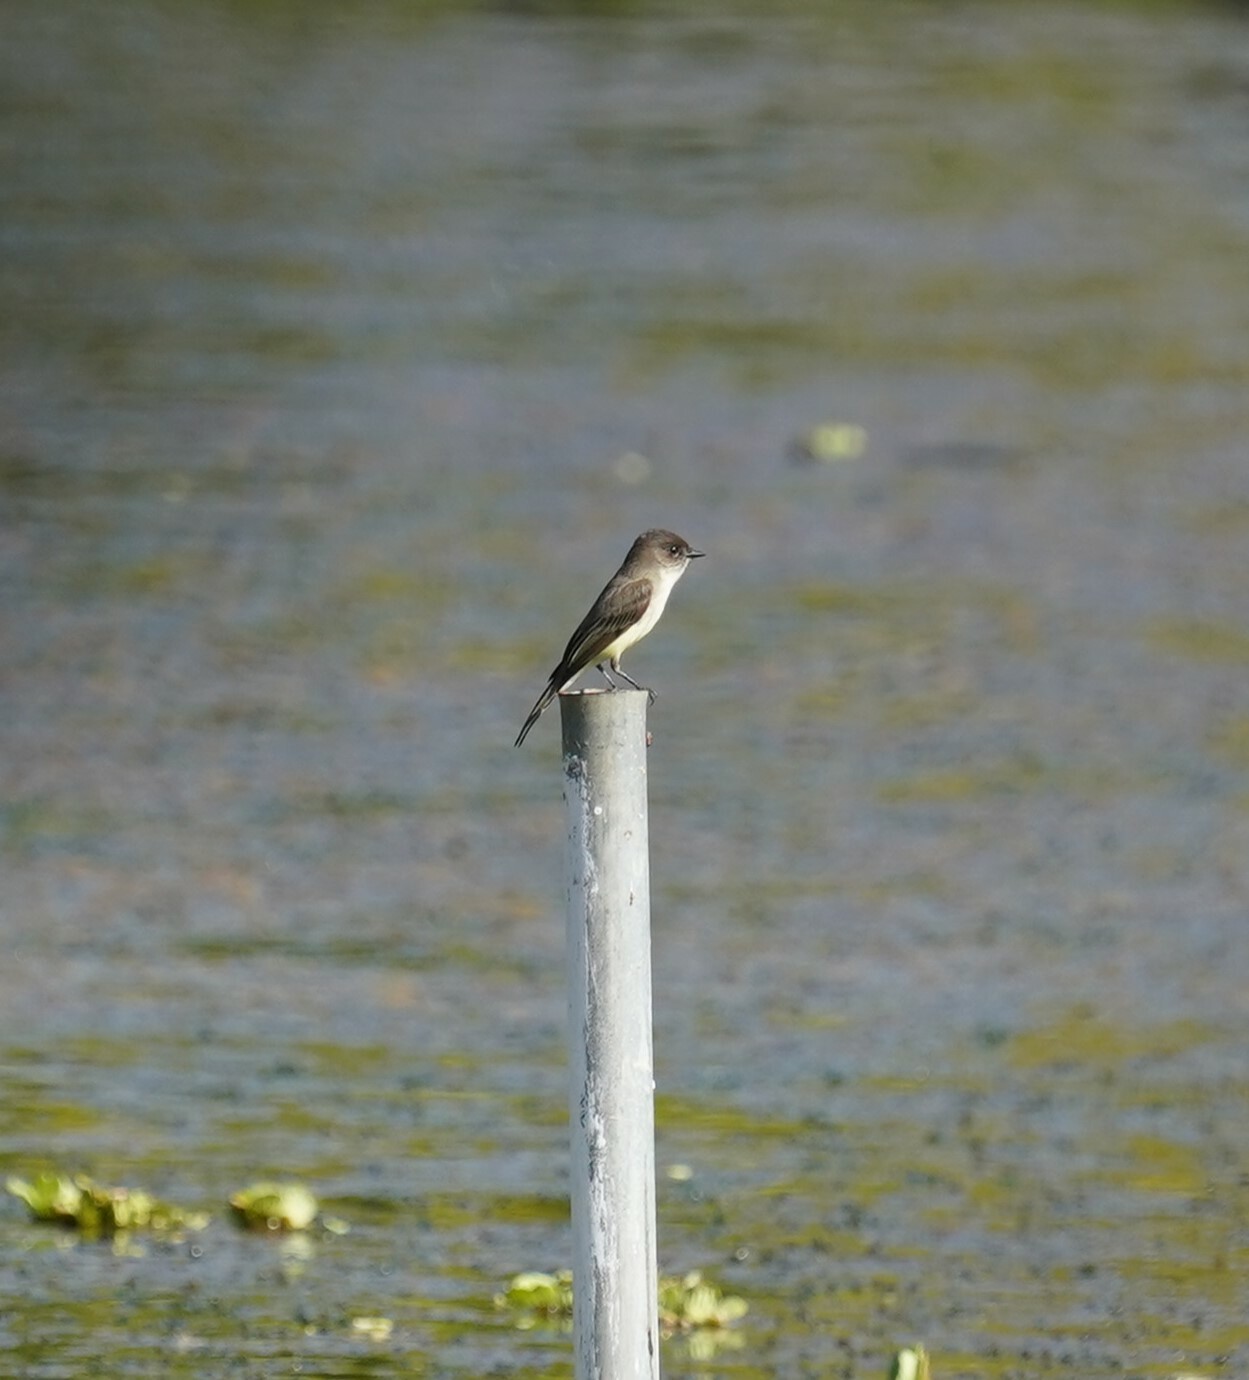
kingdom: Animalia
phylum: Chordata
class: Aves
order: Passeriformes
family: Tyrannidae
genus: Sayornis
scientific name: Sayornis phoebe
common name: Eastern phoebe
